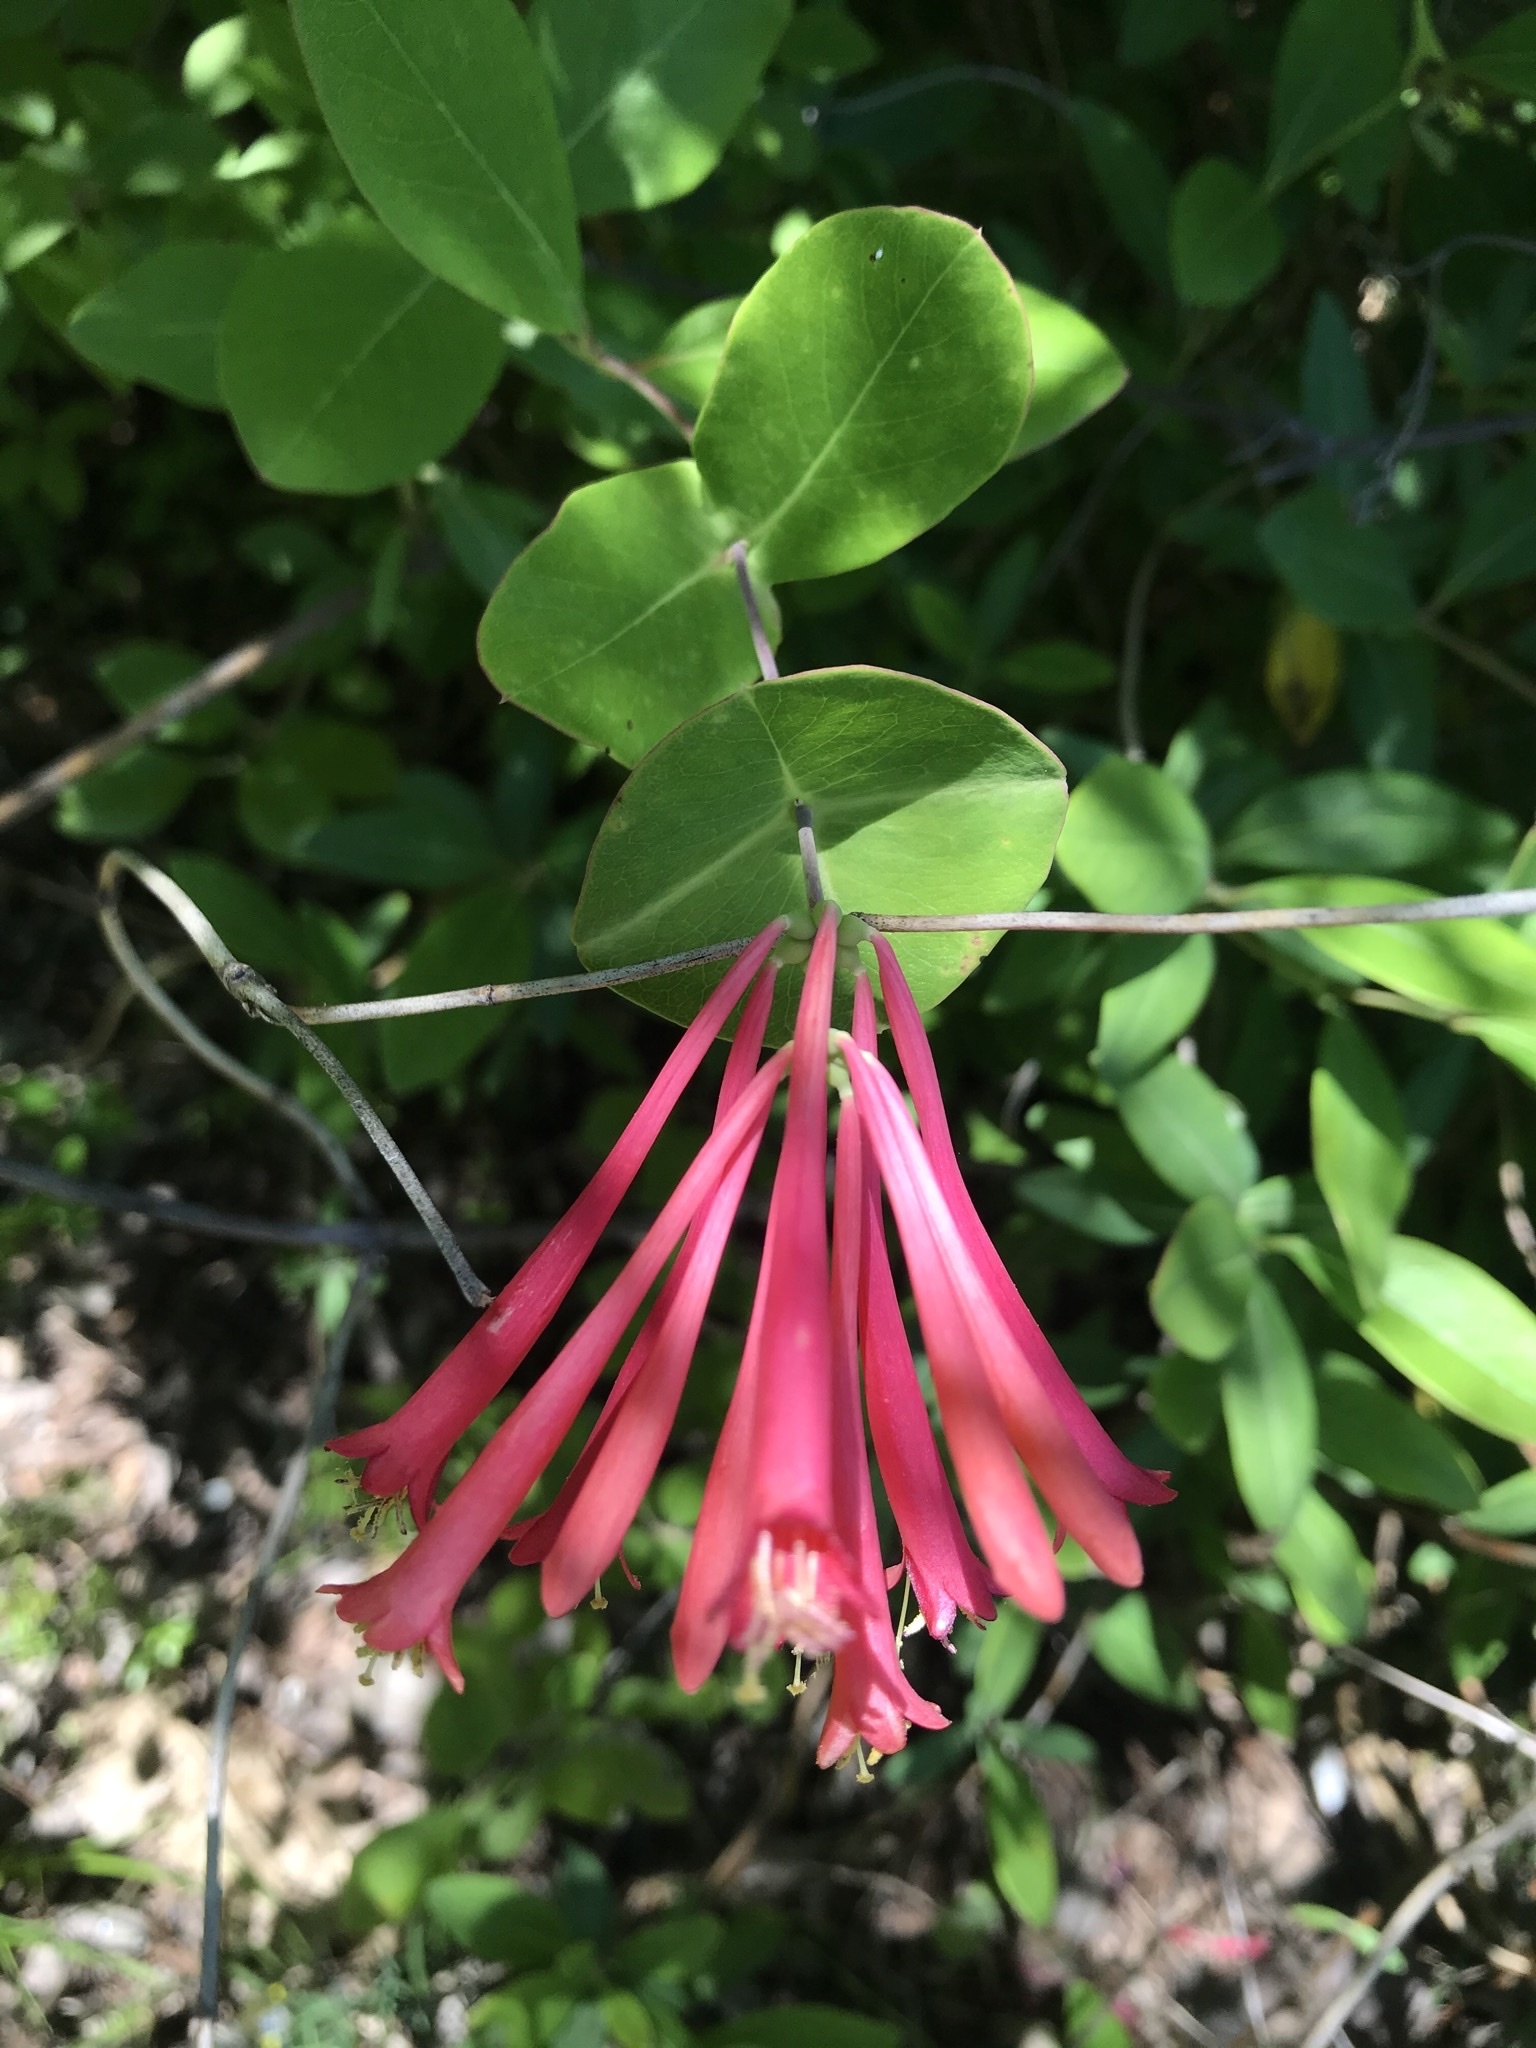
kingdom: Plantae
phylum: Tracheophyta
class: Magnoliopsida
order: Dipsacales
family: Caprifoliaceae
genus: Lonicera
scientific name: Lonicera sempervirens
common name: Coral honeysuckle
